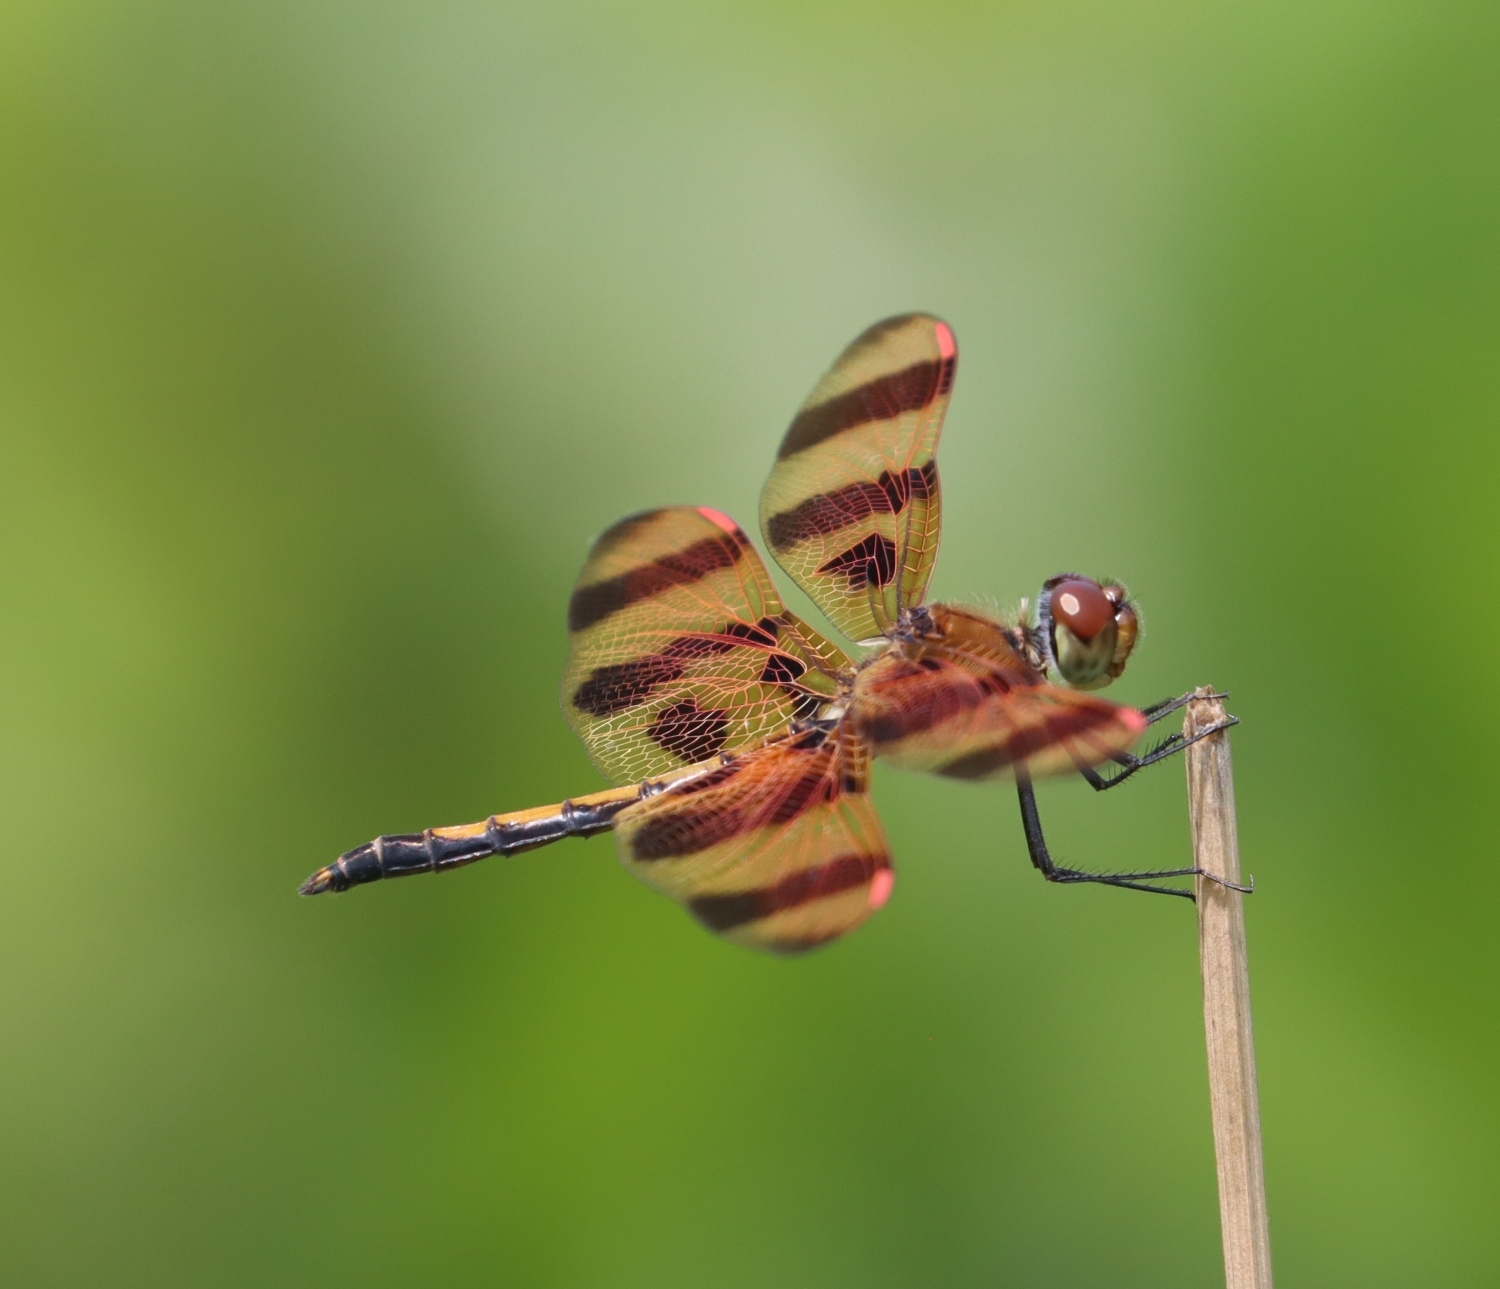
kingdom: Animalia
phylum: Arthropoda
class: Insecta
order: Odonata
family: Libellulidae
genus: Celithemis
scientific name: Celithemis eponina
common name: Halloween pennant
